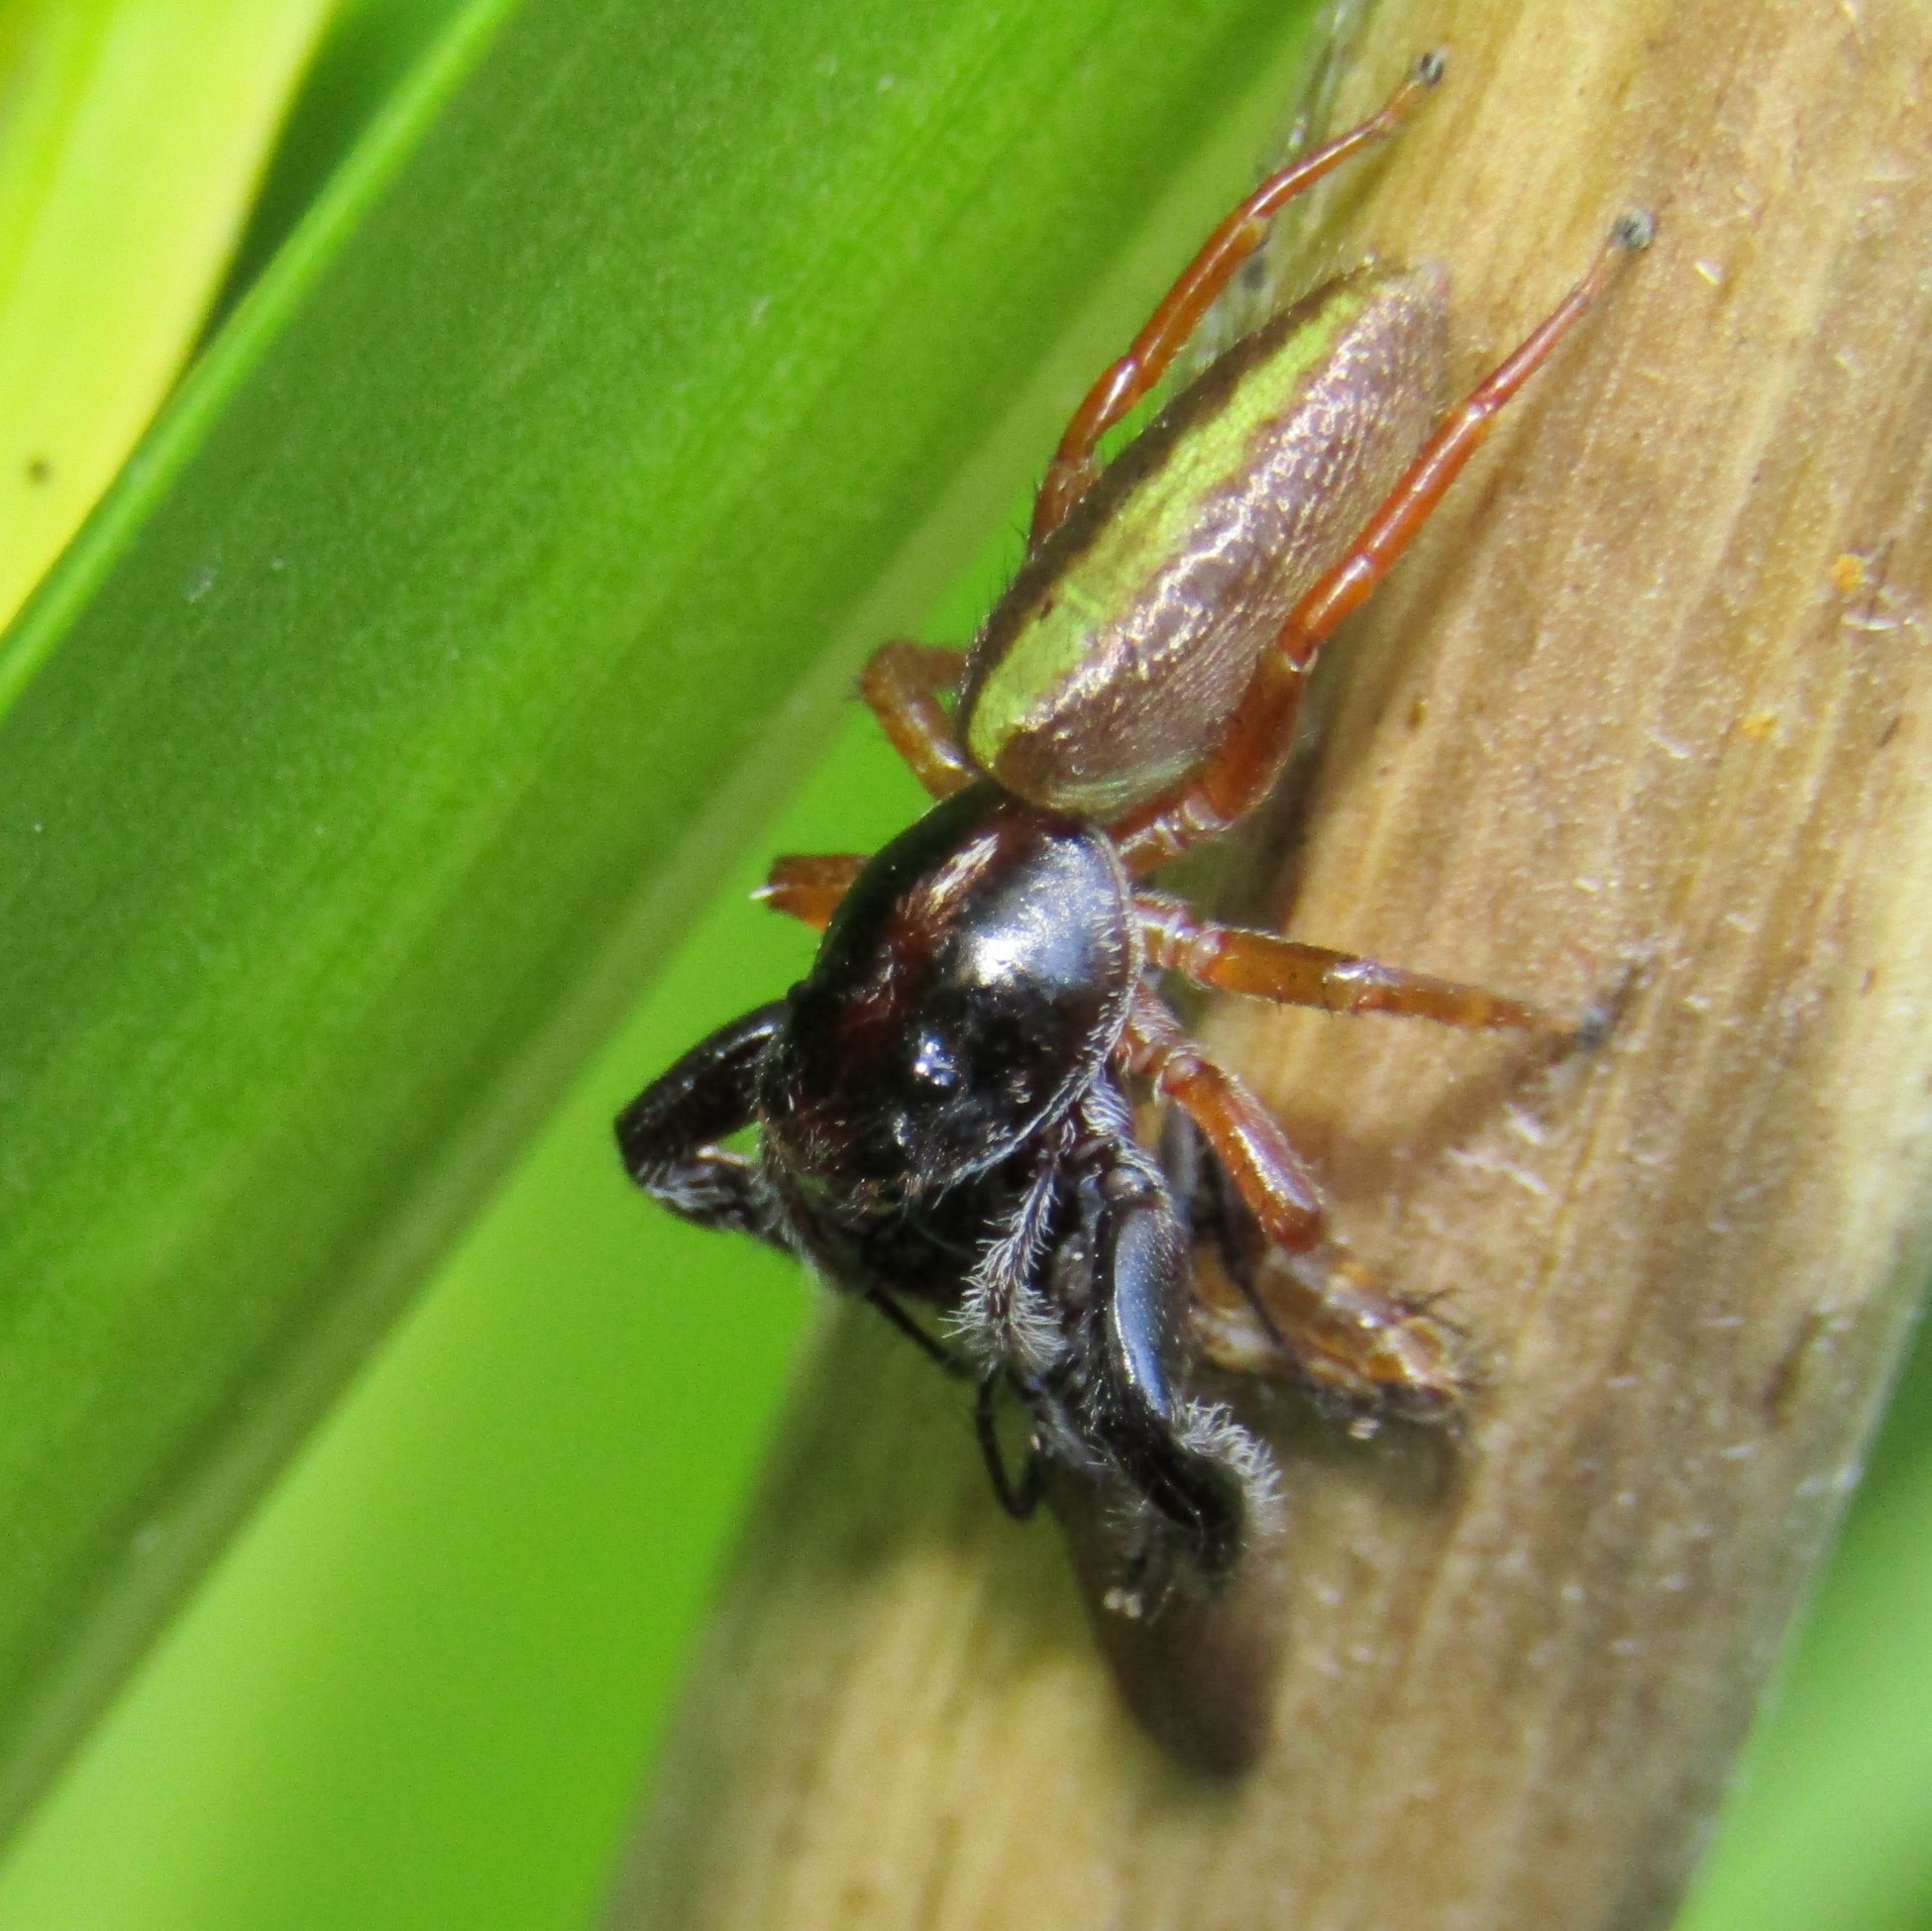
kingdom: Animalia
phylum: Arthropoda
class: Arachnida
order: Araneae
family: Salticidae
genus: Trite
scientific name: Trite planiceps
